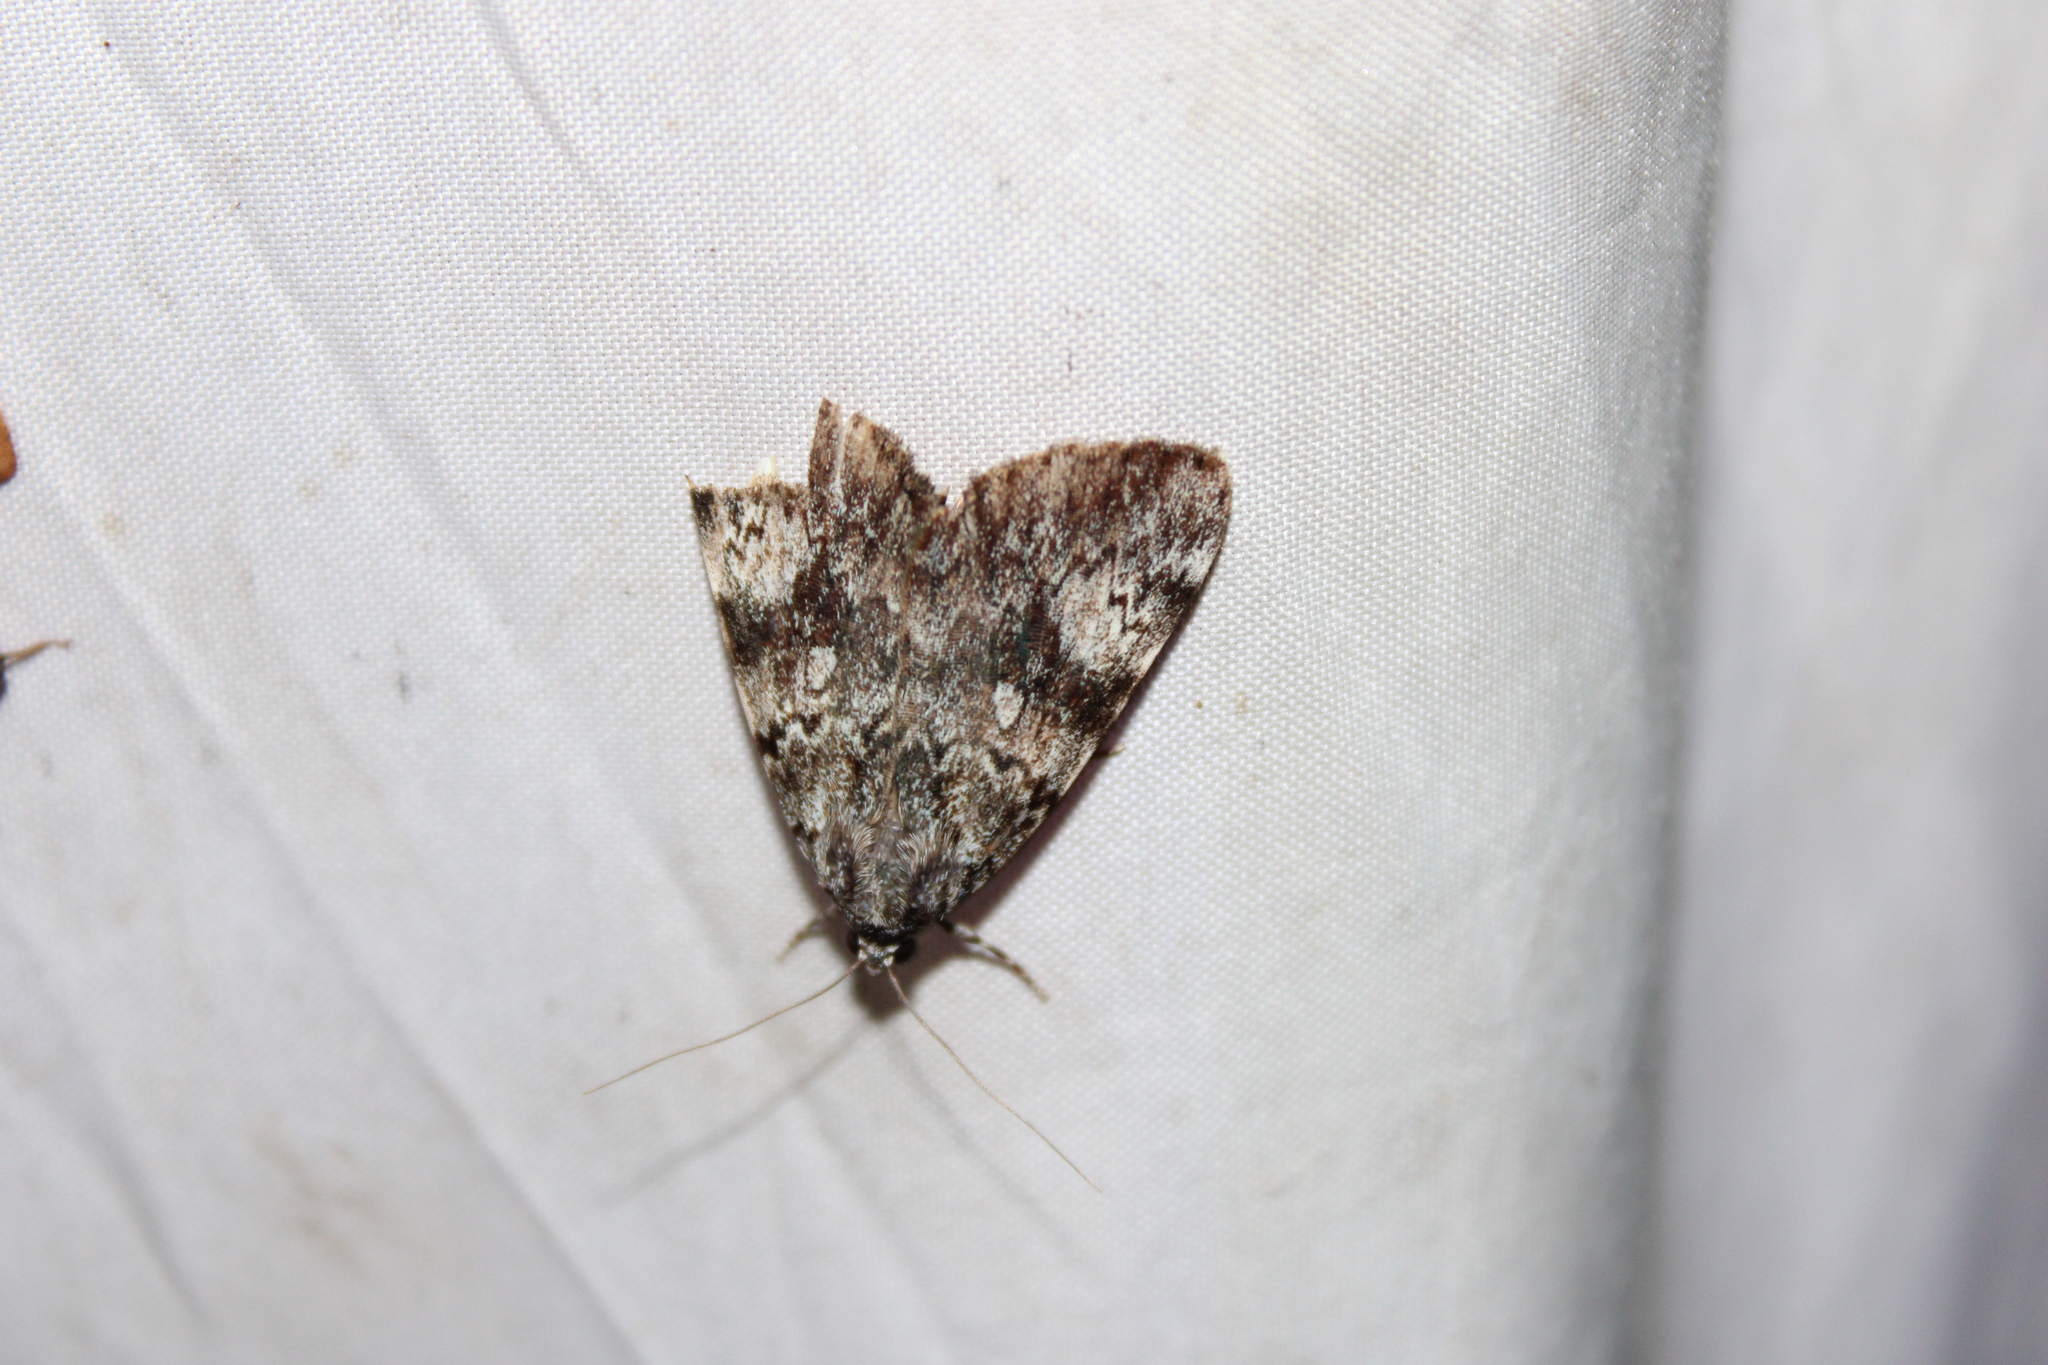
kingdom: Animalia
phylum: Arthropoda
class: Insecta
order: Lepidoptera
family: Erebidae
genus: Catocala
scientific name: Catocala lineella
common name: Little lined underwing
